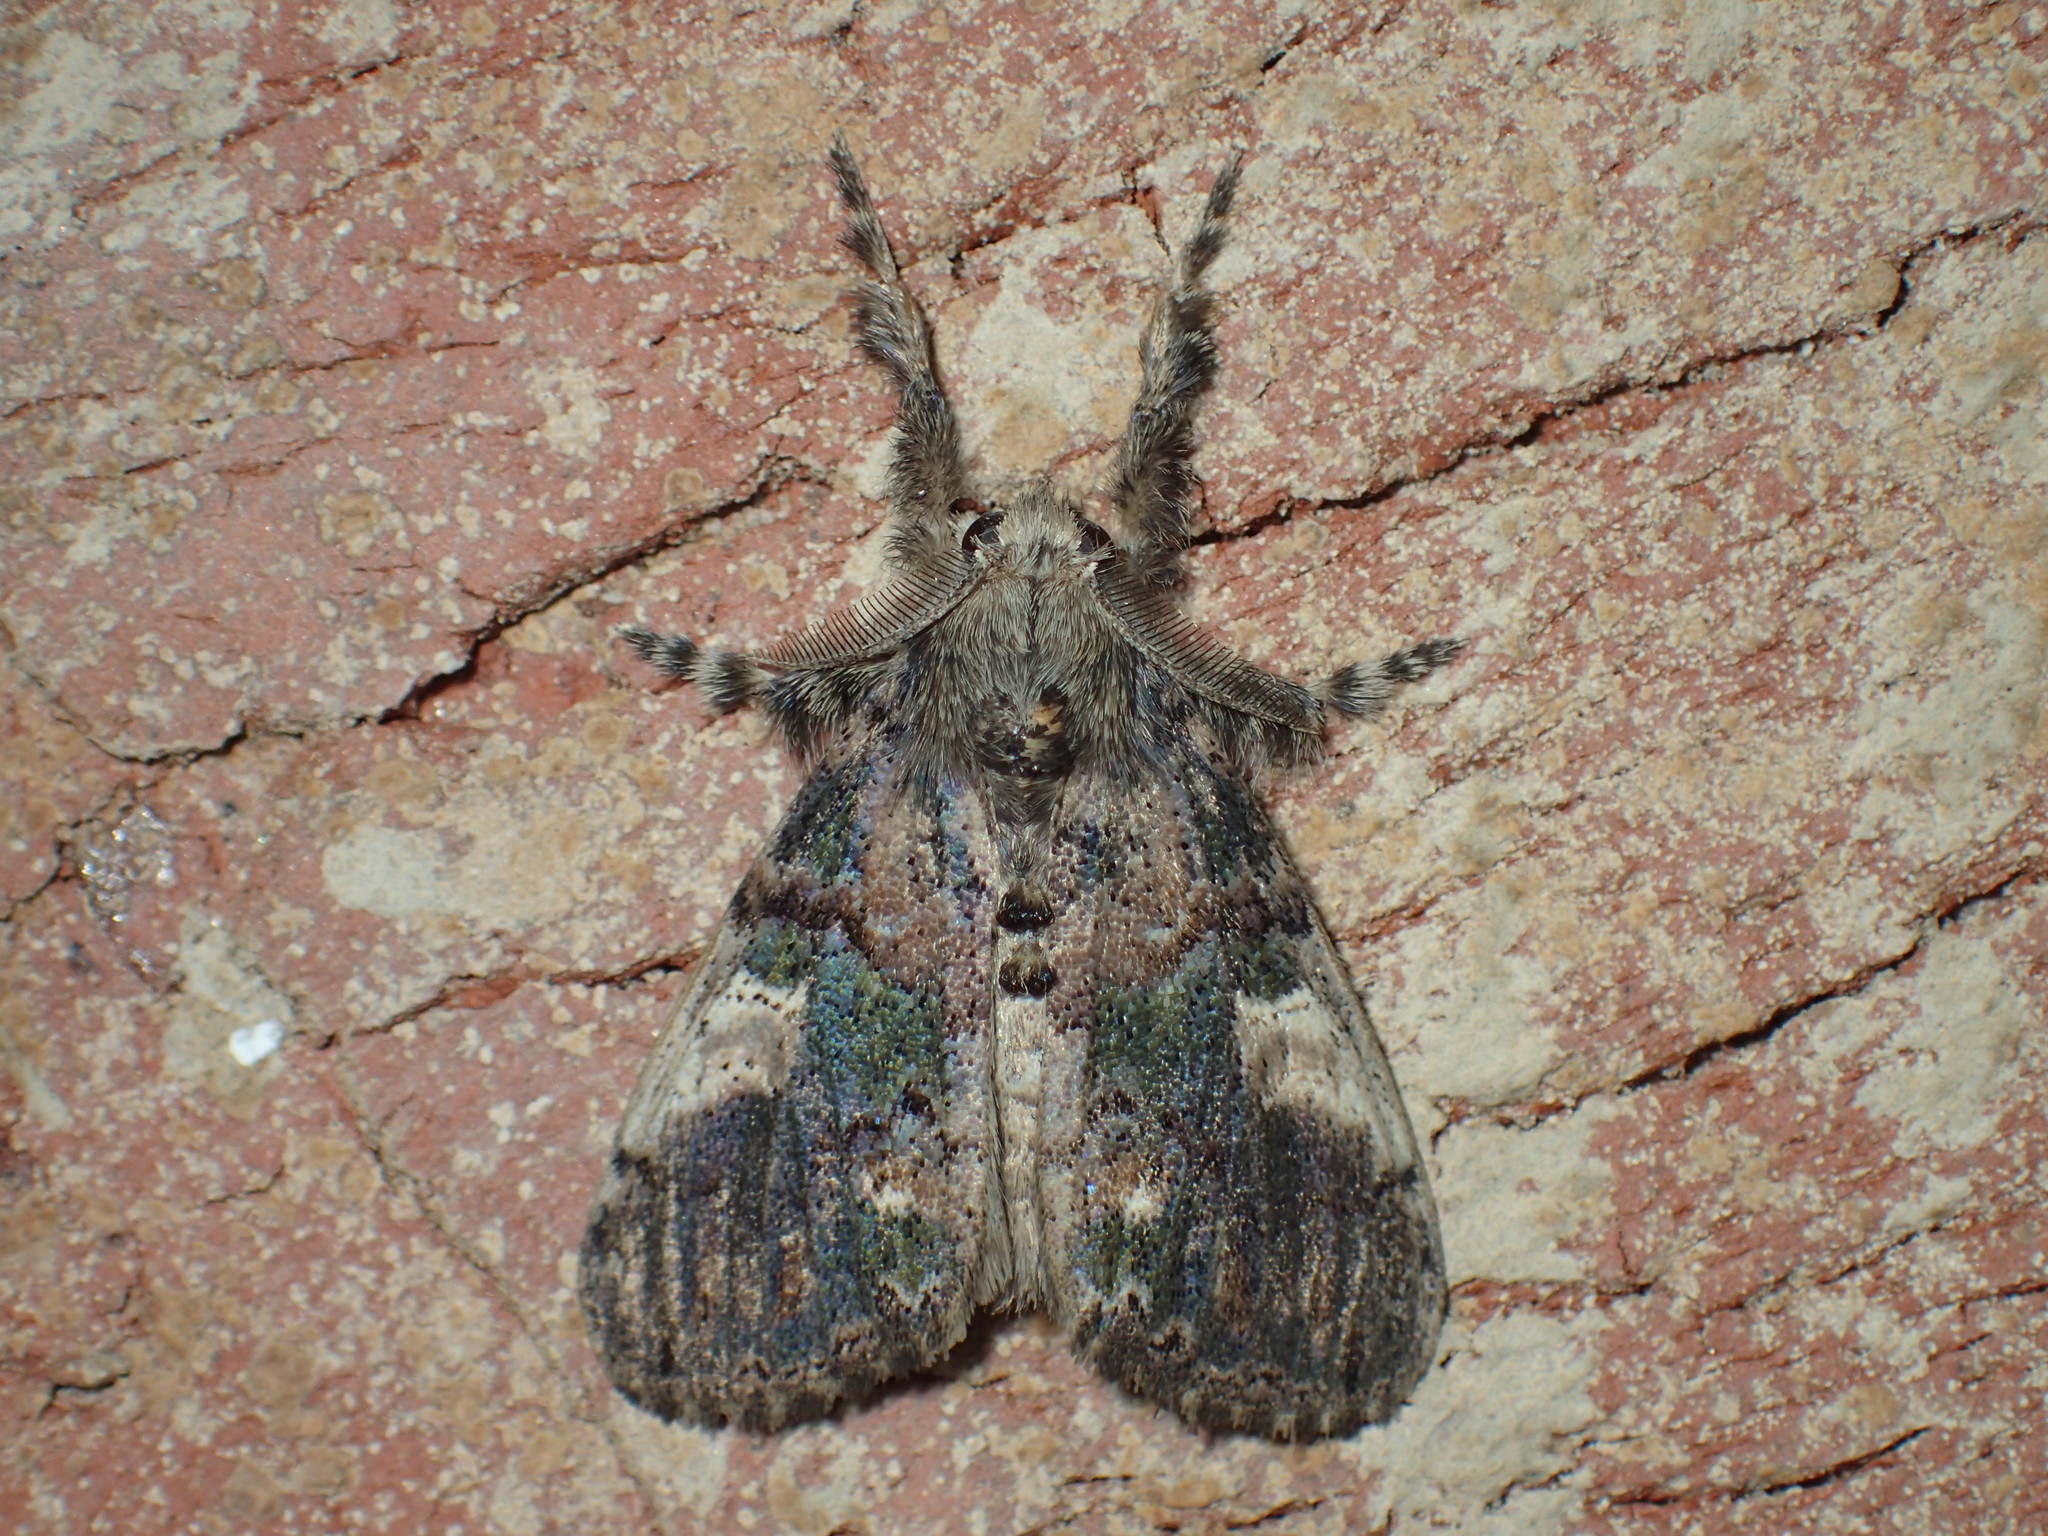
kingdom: Animalia
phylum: Arthropoda
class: Insecta
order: Lepidoptera
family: Erebidae
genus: Orgyia
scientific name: Orgyia leucostigma
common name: White-marked tussock moth
